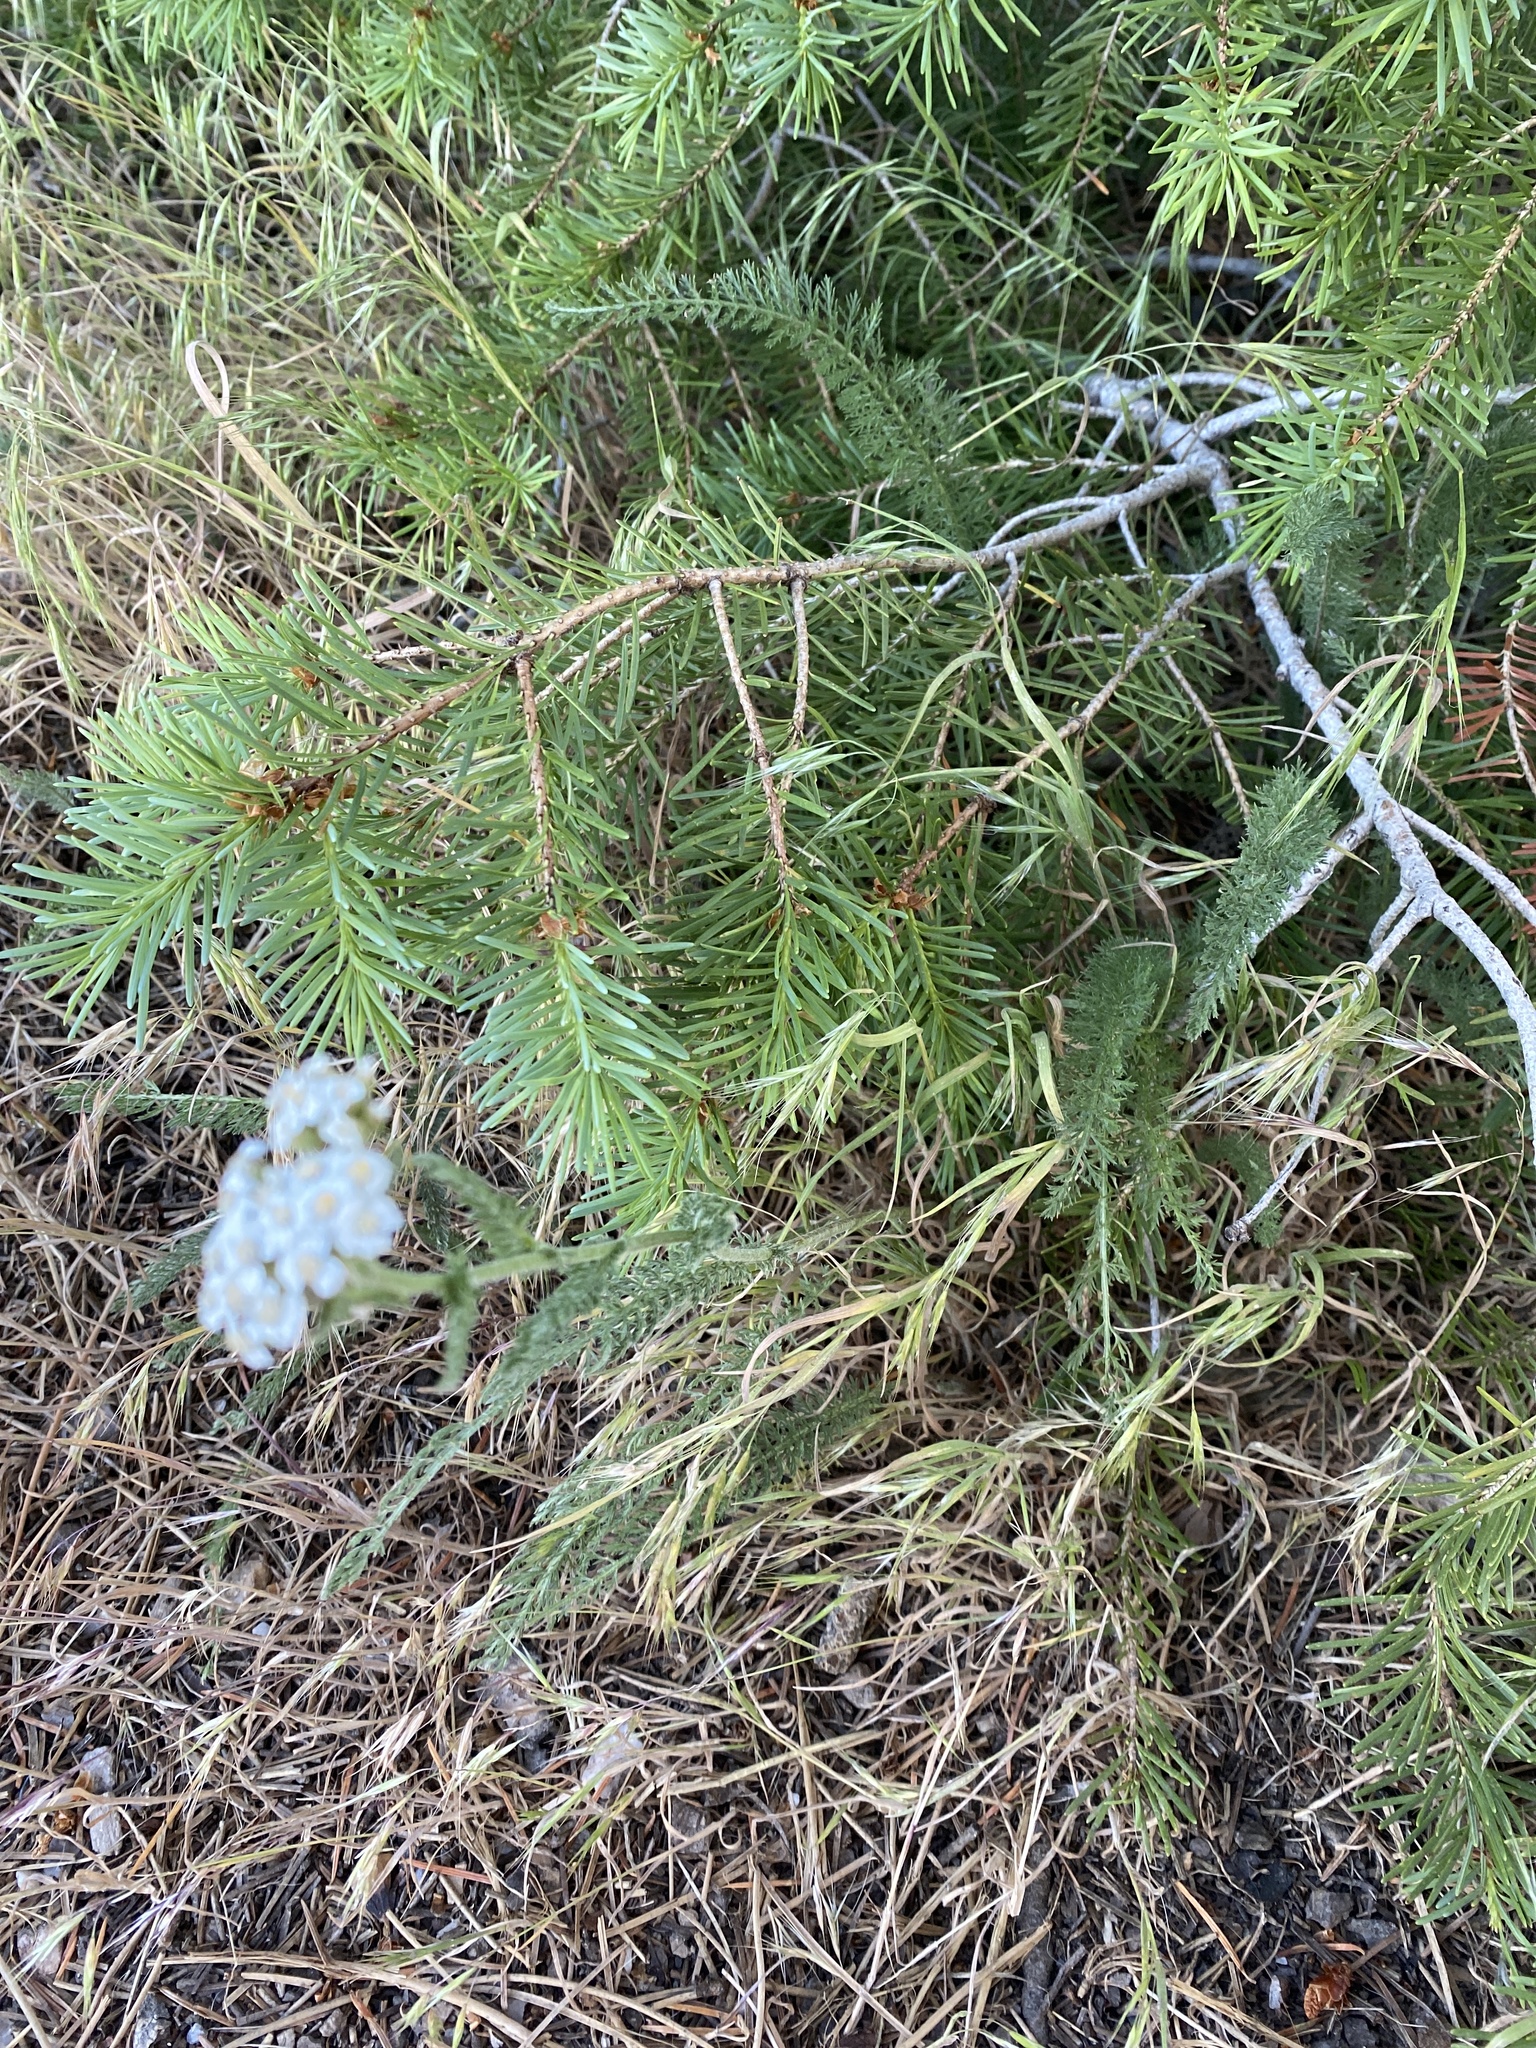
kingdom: Plantae
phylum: Tracheophyta
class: Magnoliopsida
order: Asterales
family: Asteraceae
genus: Achillea
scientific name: Achillea millefolium
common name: Yarrow
